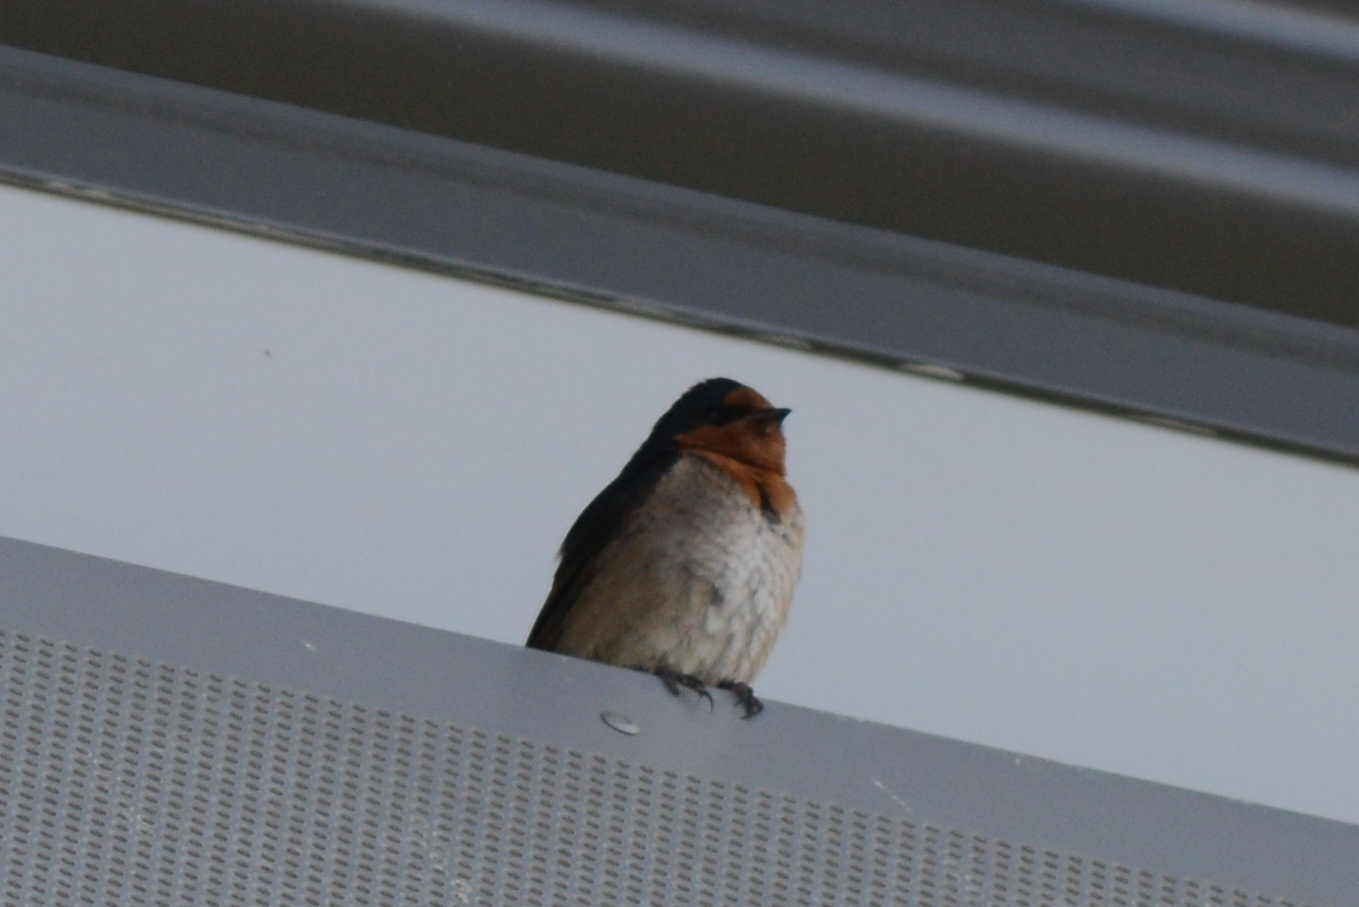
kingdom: Animalia
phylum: Chordata
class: Aves
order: Passeriformes
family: Hirundinidae
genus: Hirundo
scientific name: Hirundo neoxena
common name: Welcome swallow
